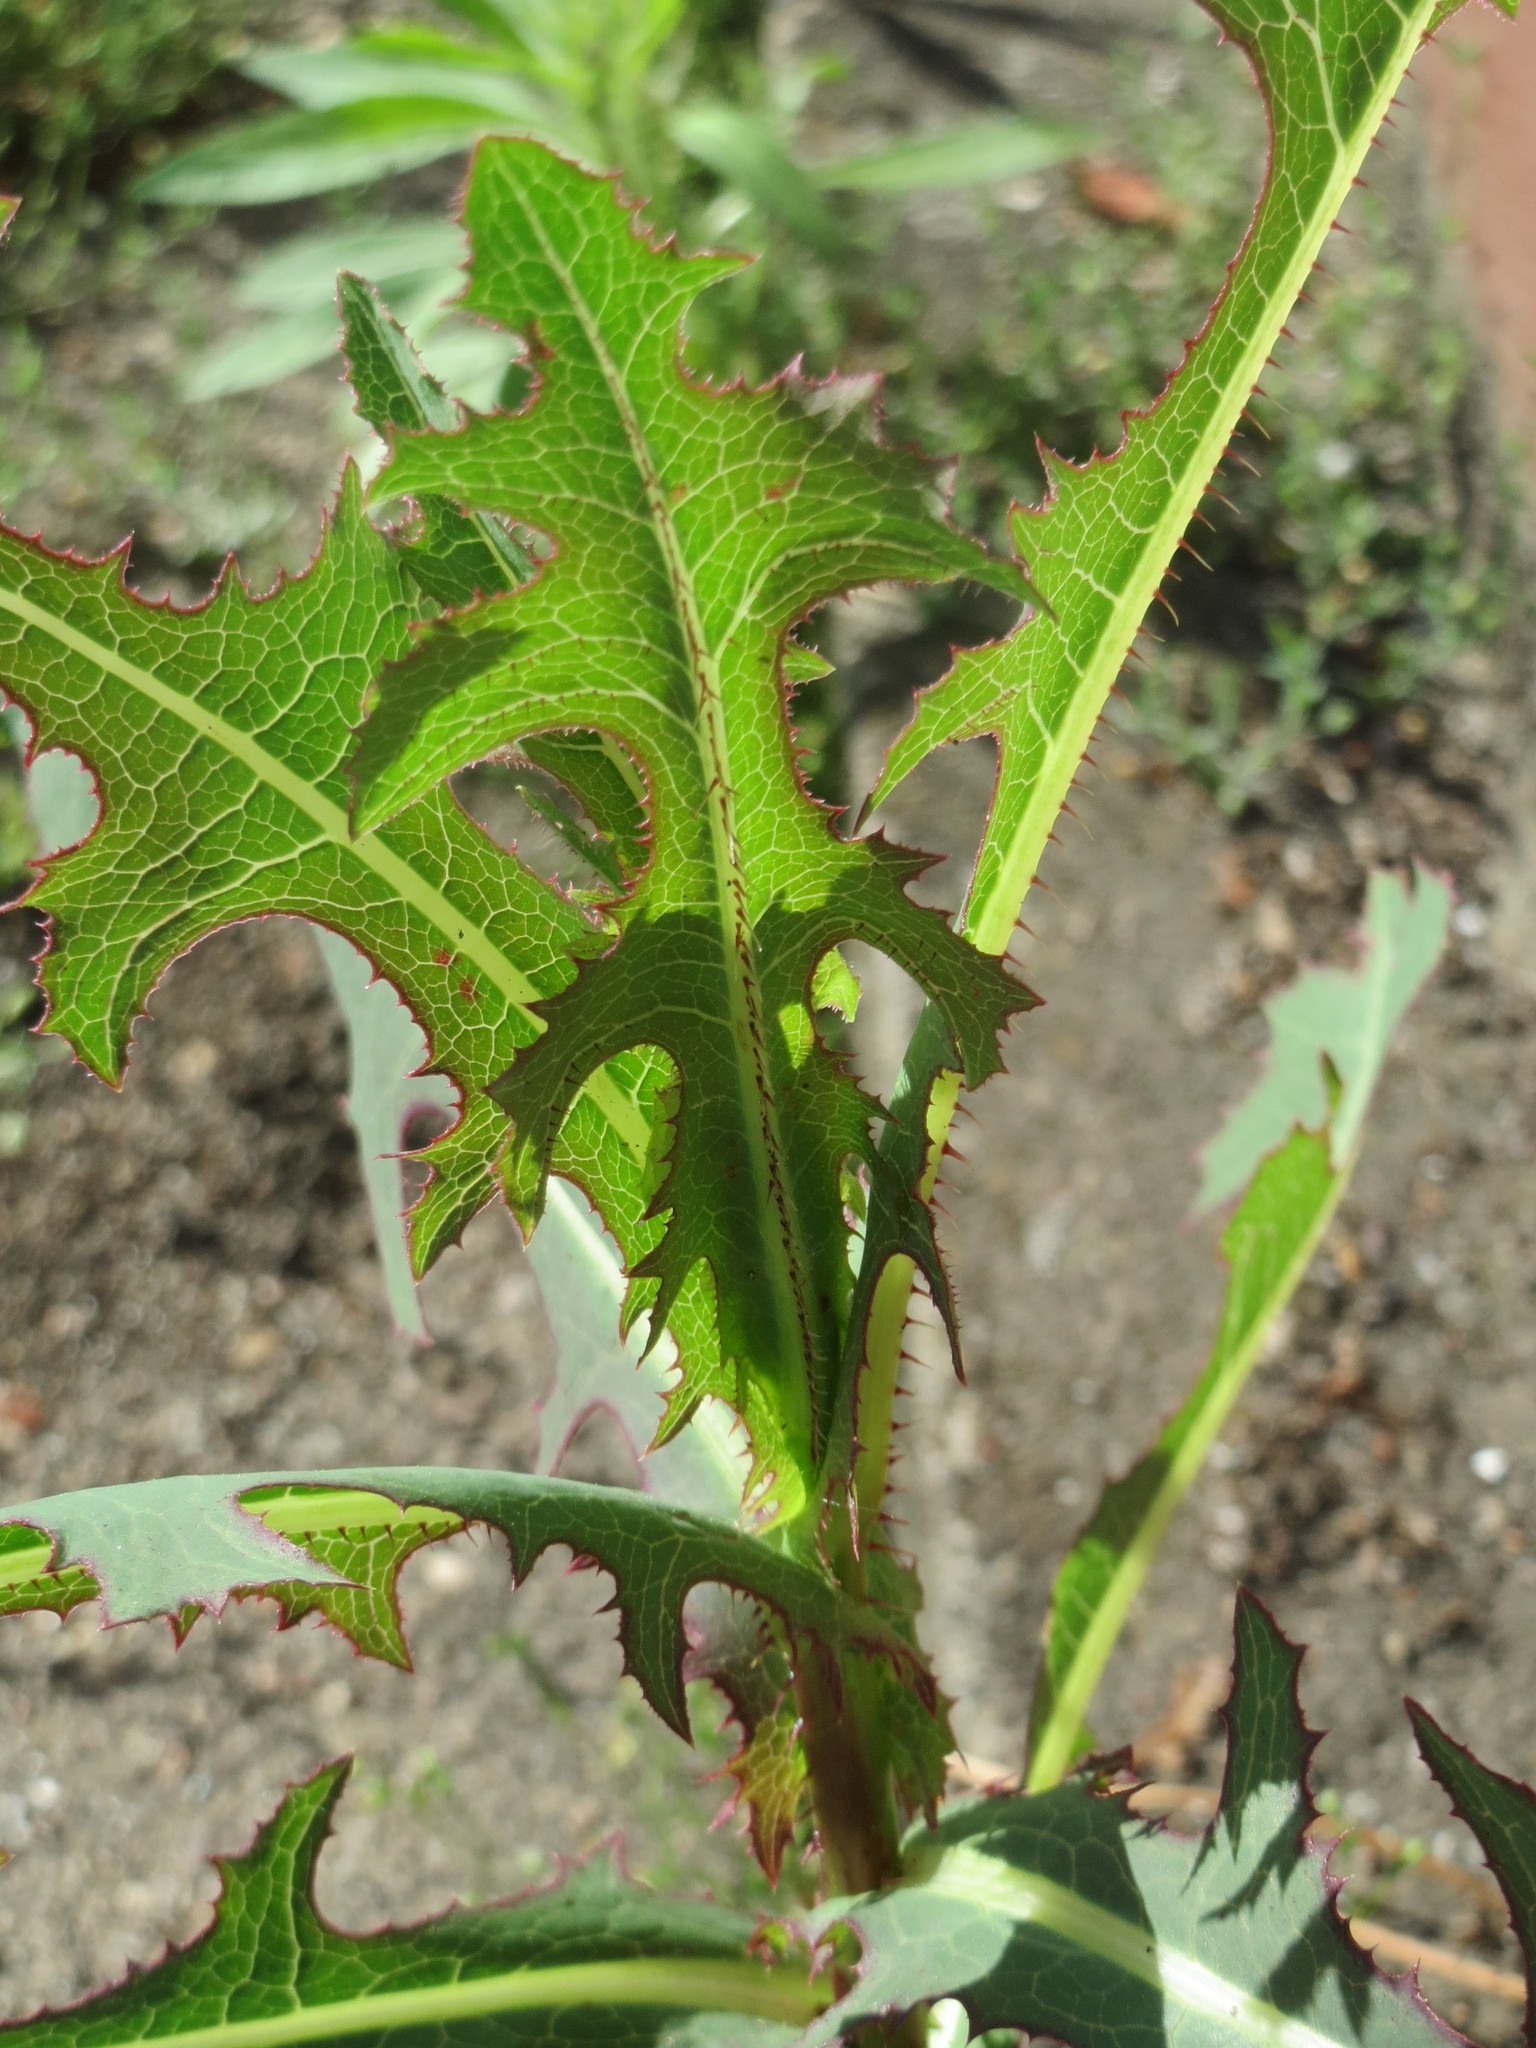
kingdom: Plantae
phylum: Tracheophyta
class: Magnoliopsida
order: Asterales
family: Asteraceae
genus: Lactuca
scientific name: Lactuca serriola
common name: Prickly lettuce
